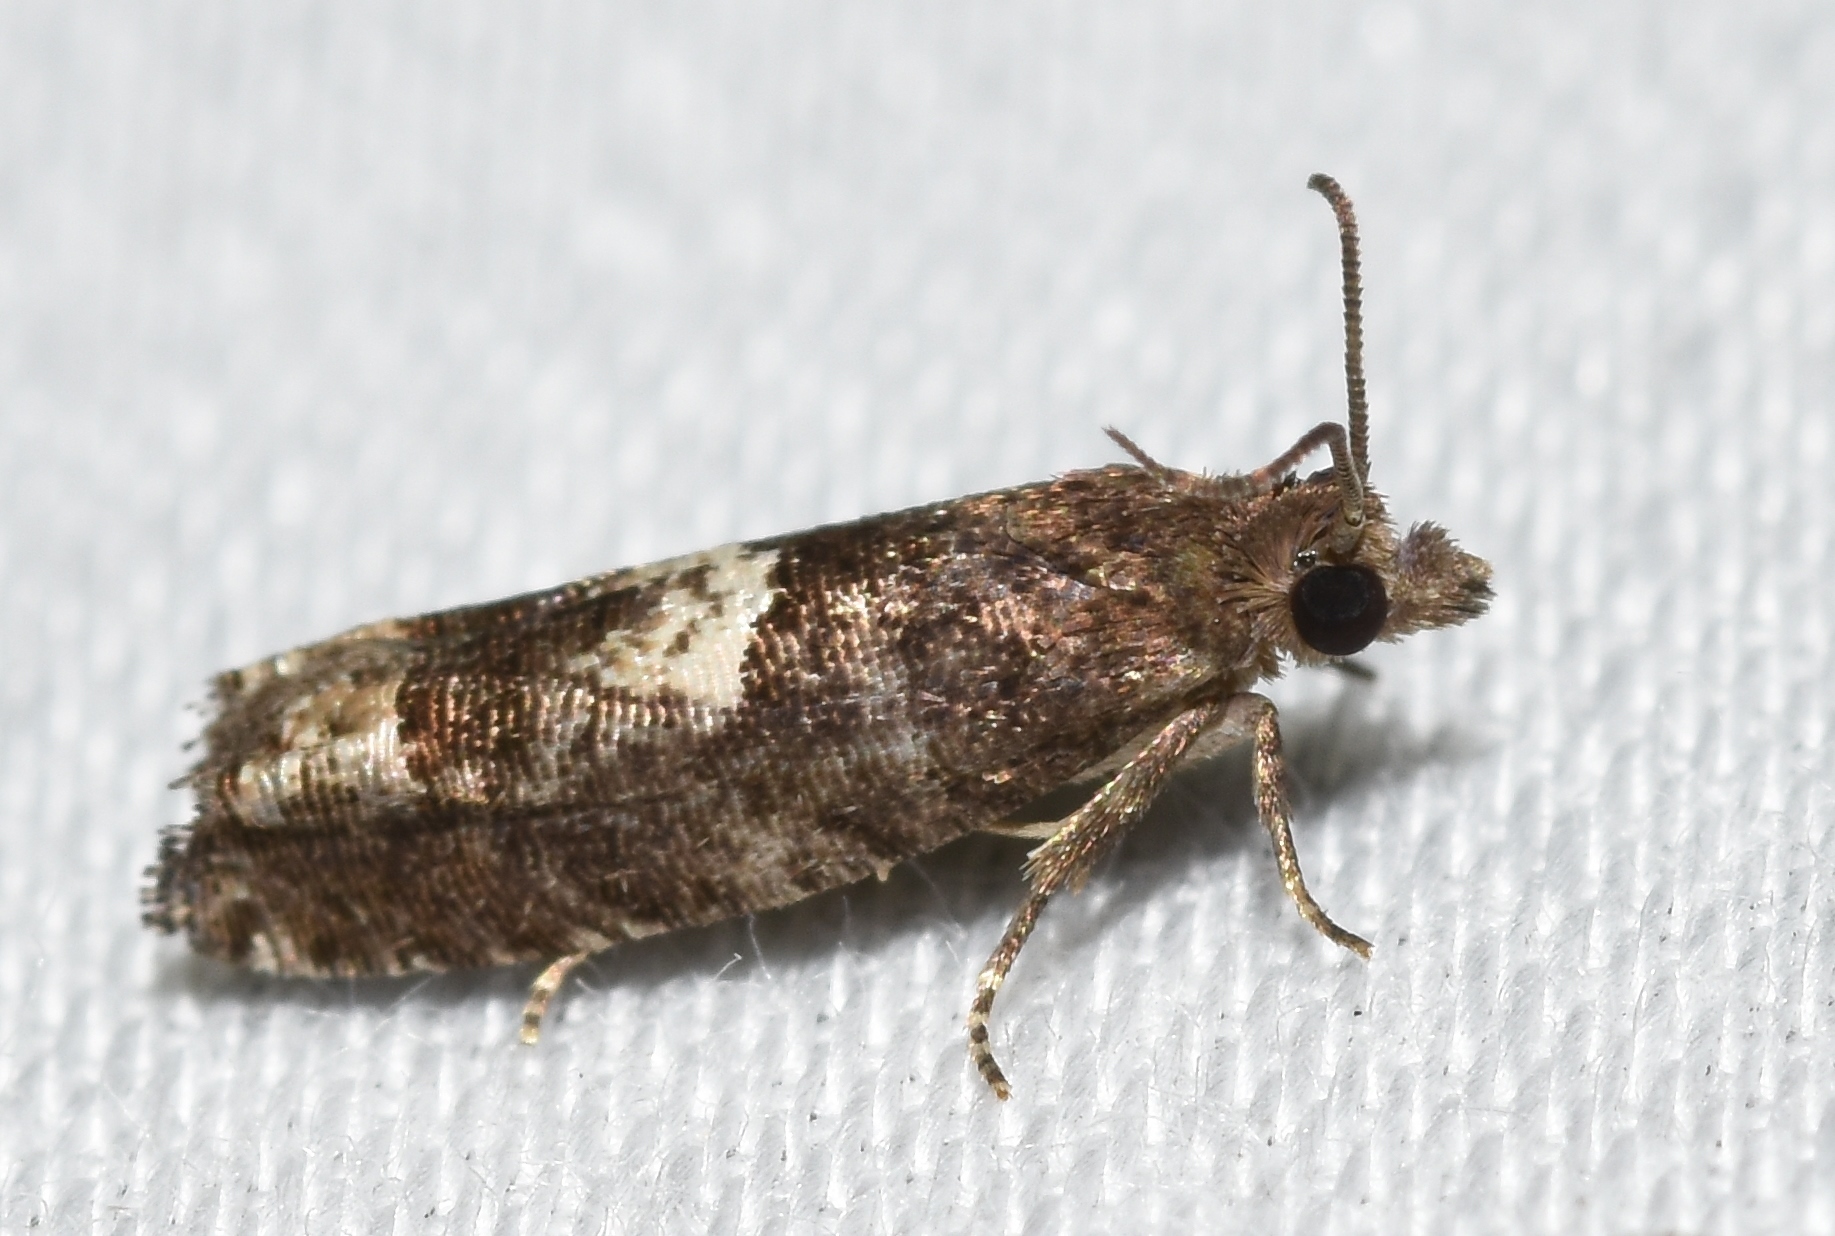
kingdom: Animalia
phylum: Arthropoda
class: Insecta
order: Lepidoptera
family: Tortricidae
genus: Eucosma
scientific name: Eucosma parmatana
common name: Aster eucosma moth
